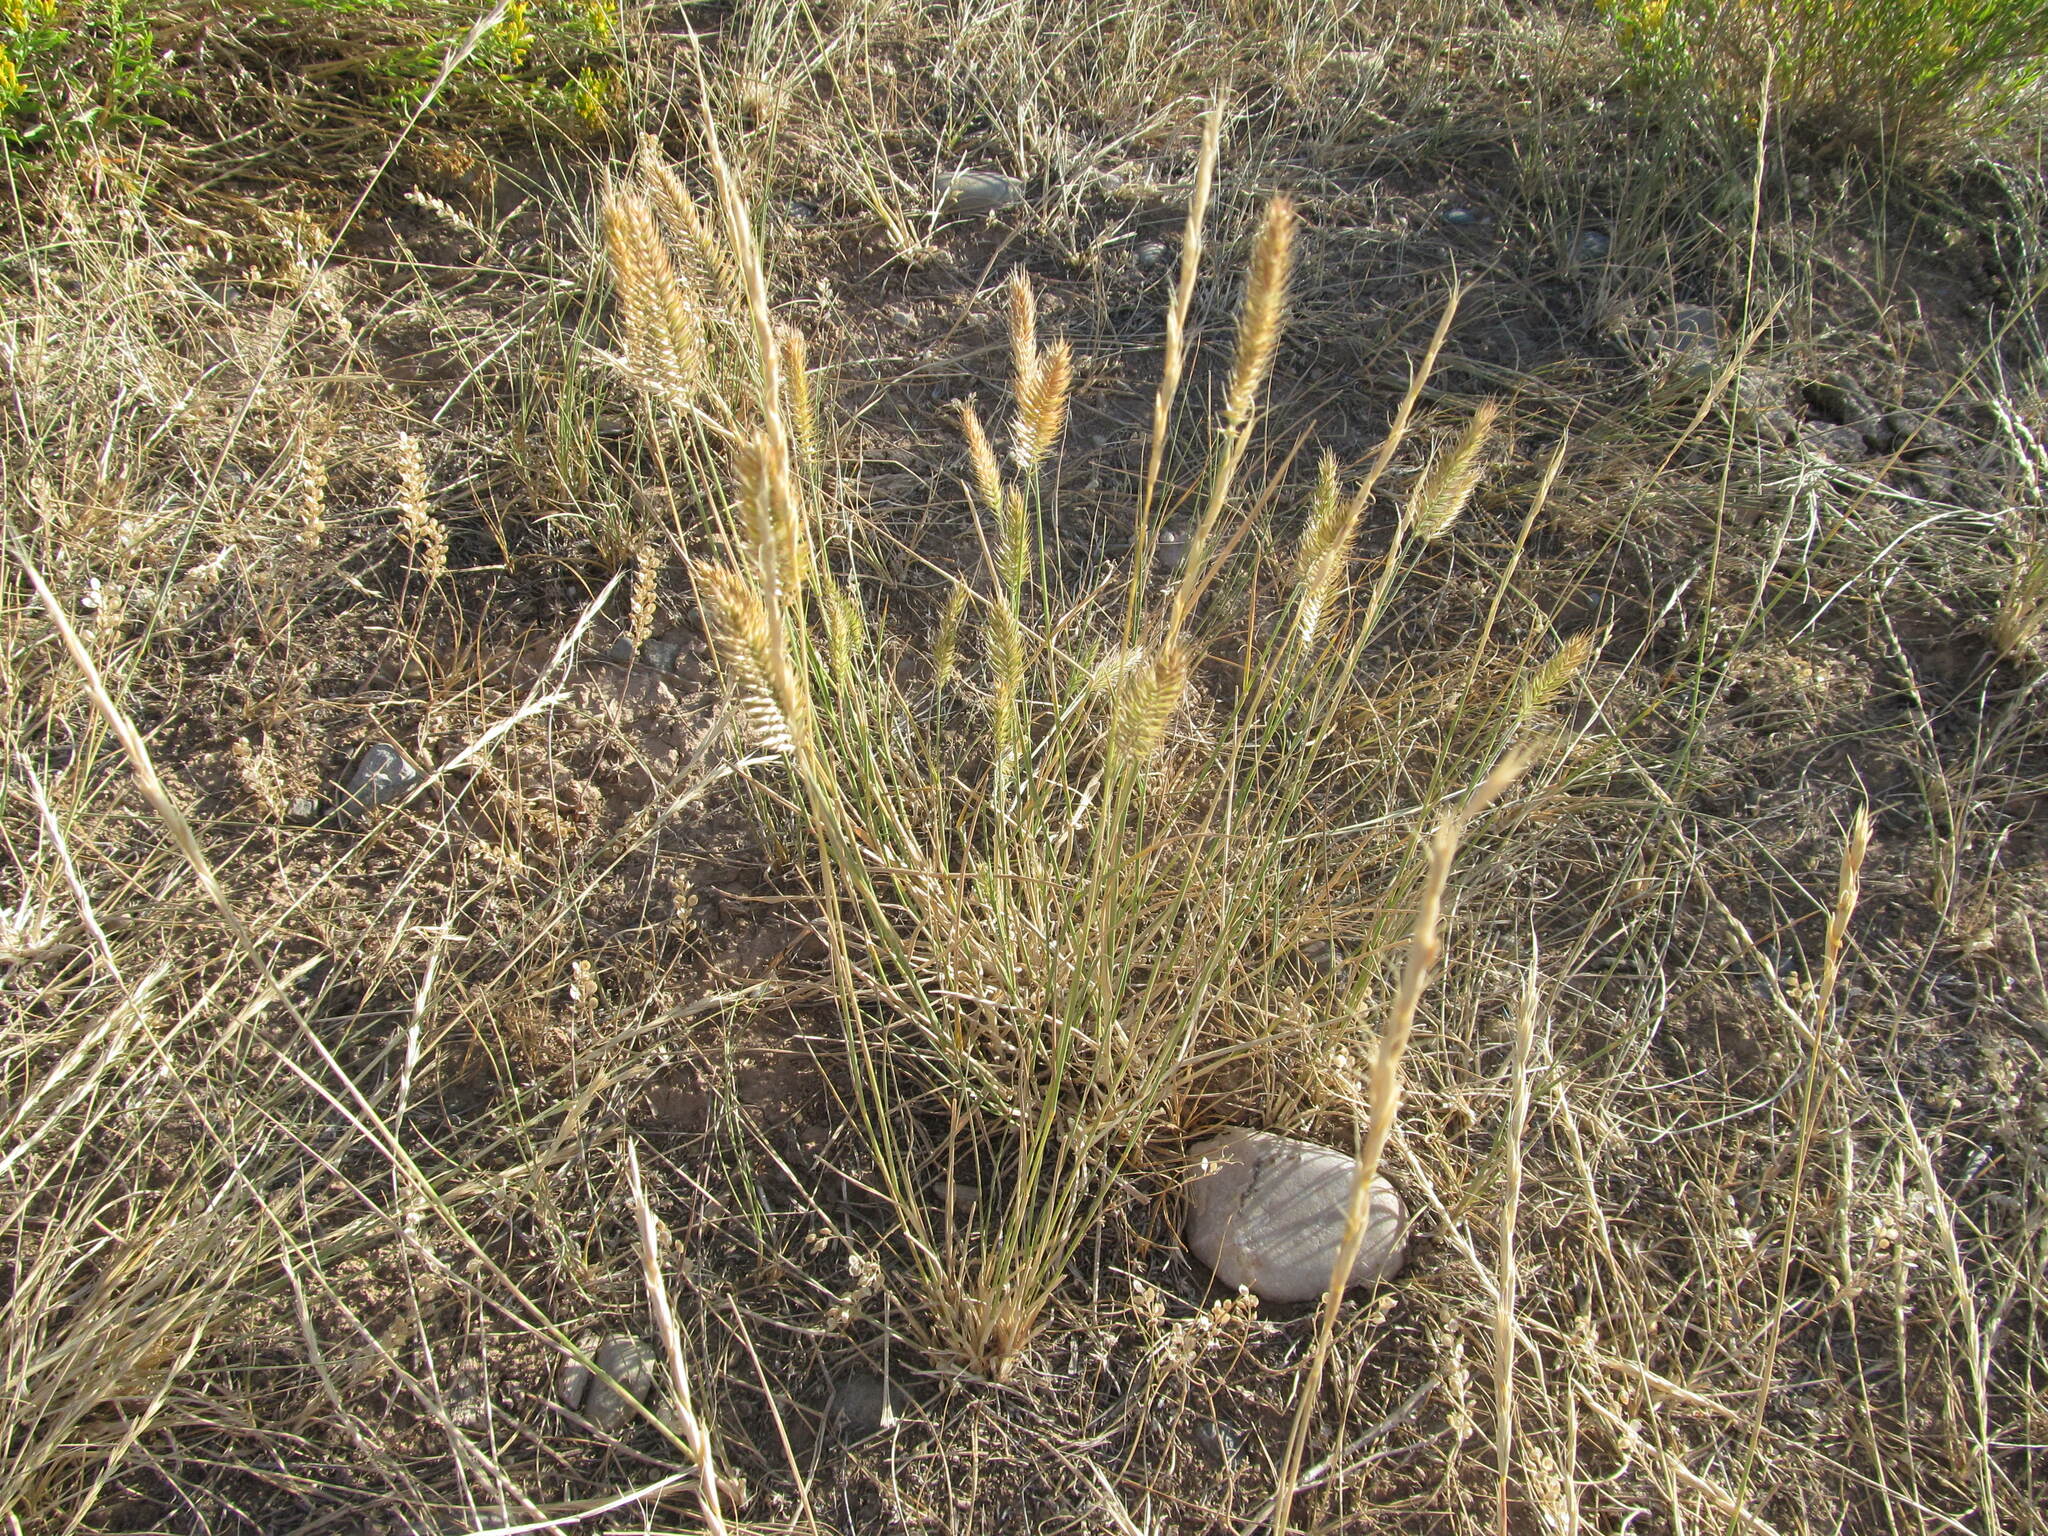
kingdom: Plantae
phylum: Tracheophyta
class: Liliopsida
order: Poales
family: Poaceae
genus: Agropyron
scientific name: Agropyron cristatum
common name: Crested wheatgrass
